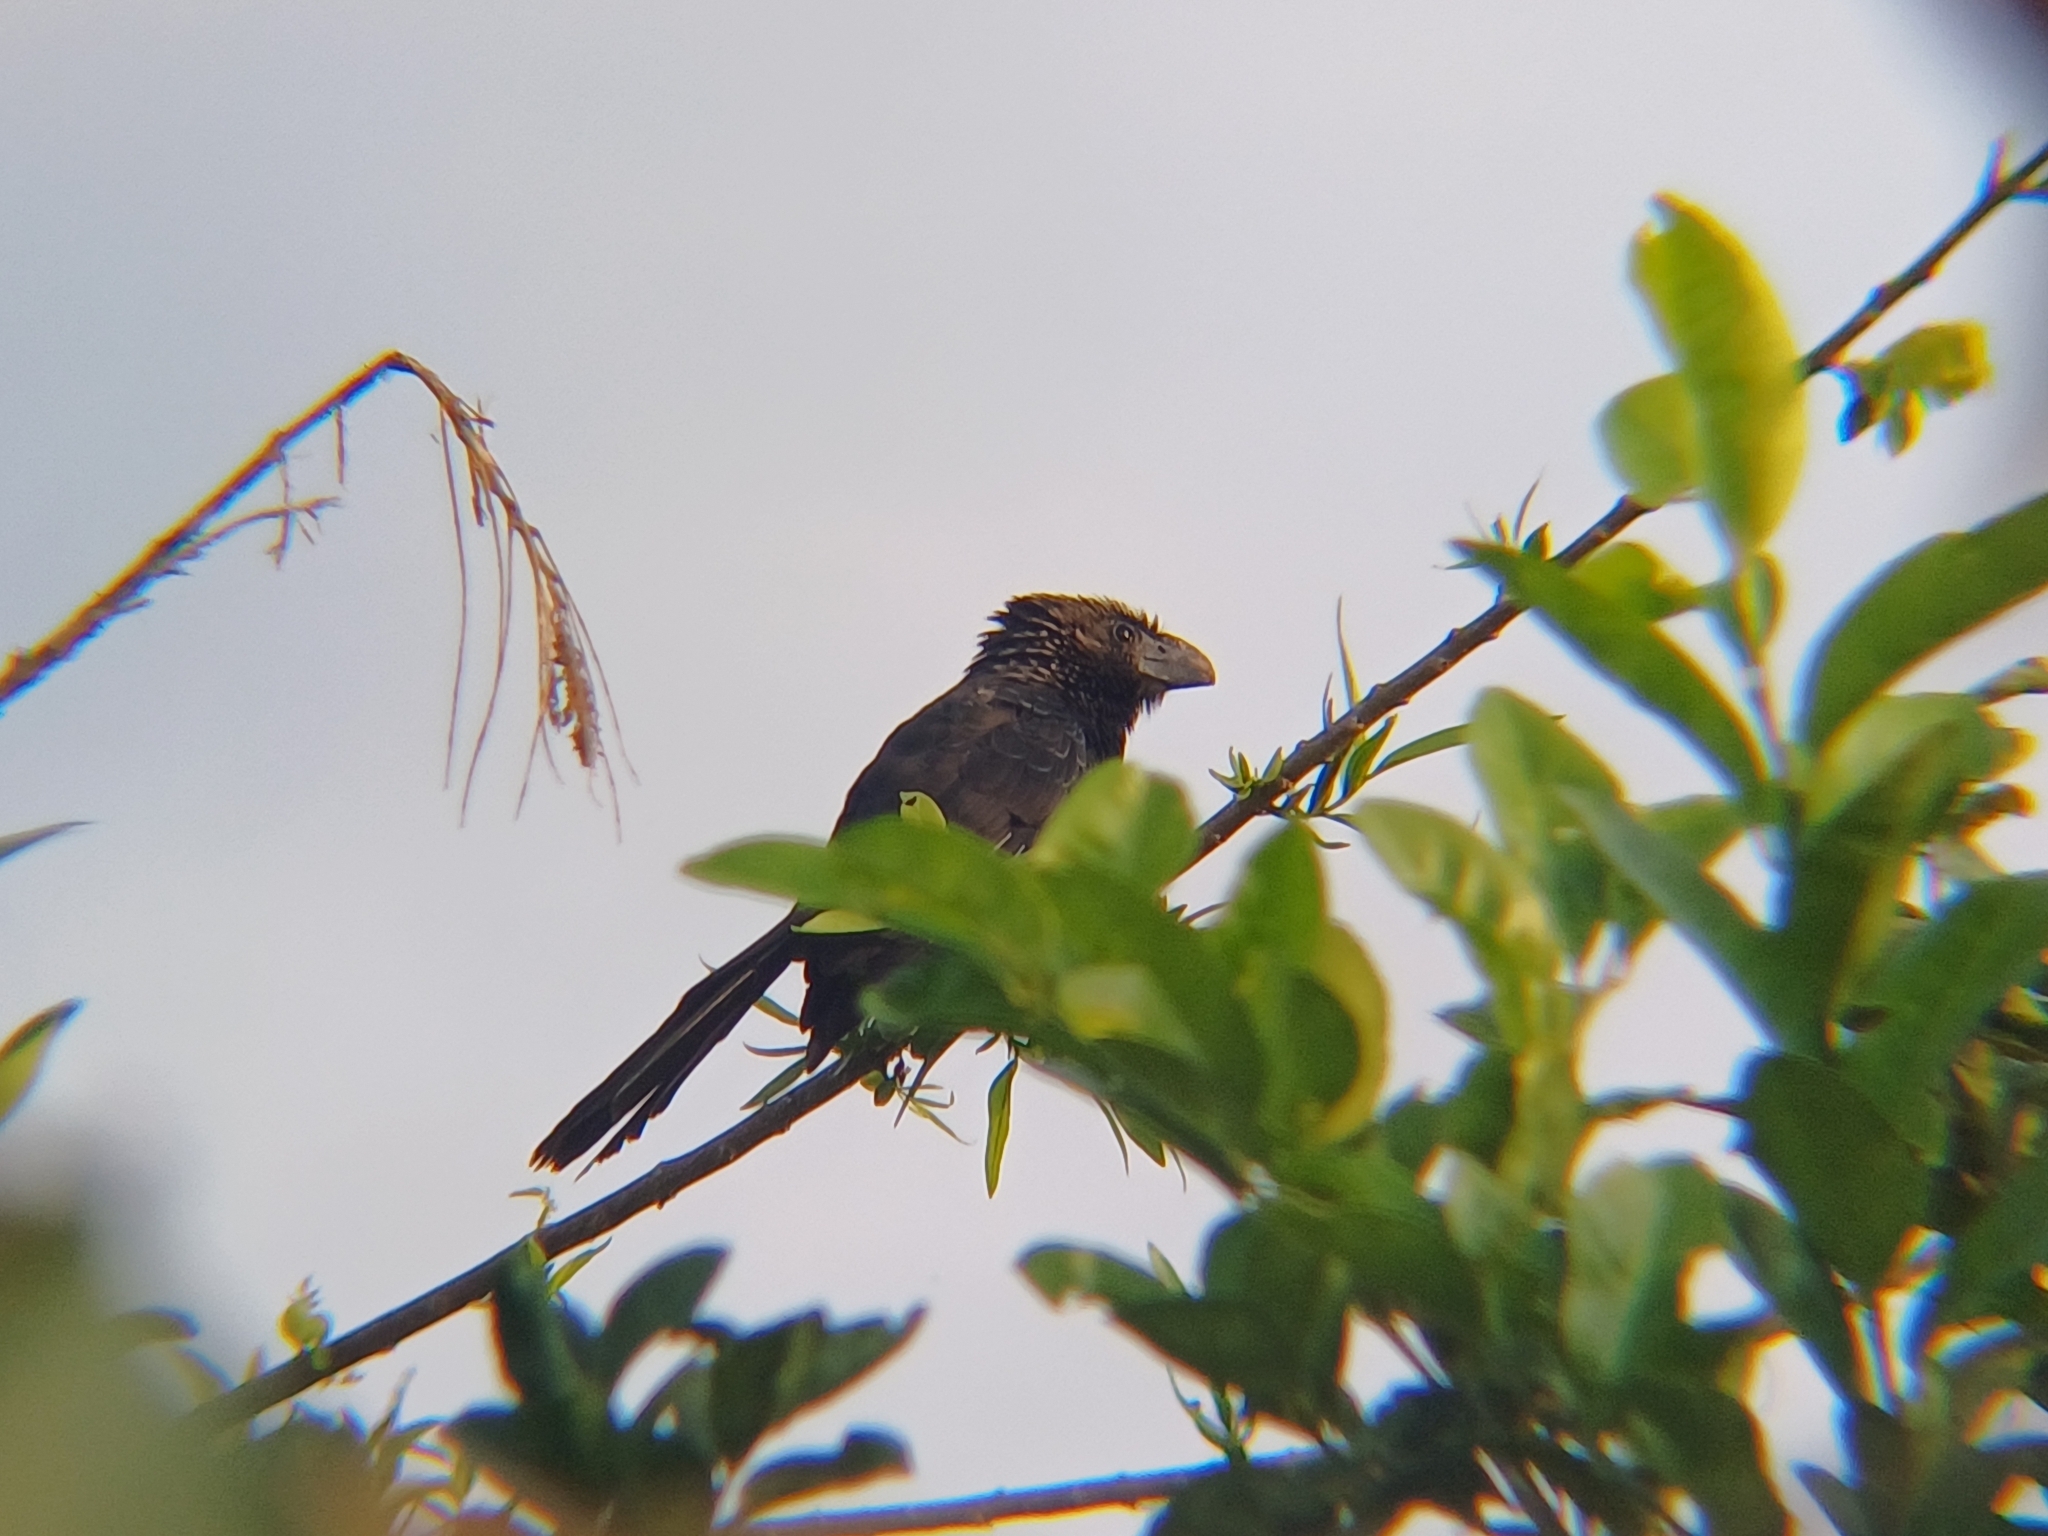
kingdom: Animalia
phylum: Chordata
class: Aves
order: Cuculiformes
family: Cuculidae
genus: Crotophaga
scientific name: Crotophaga ani
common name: Smooth-billed ani
